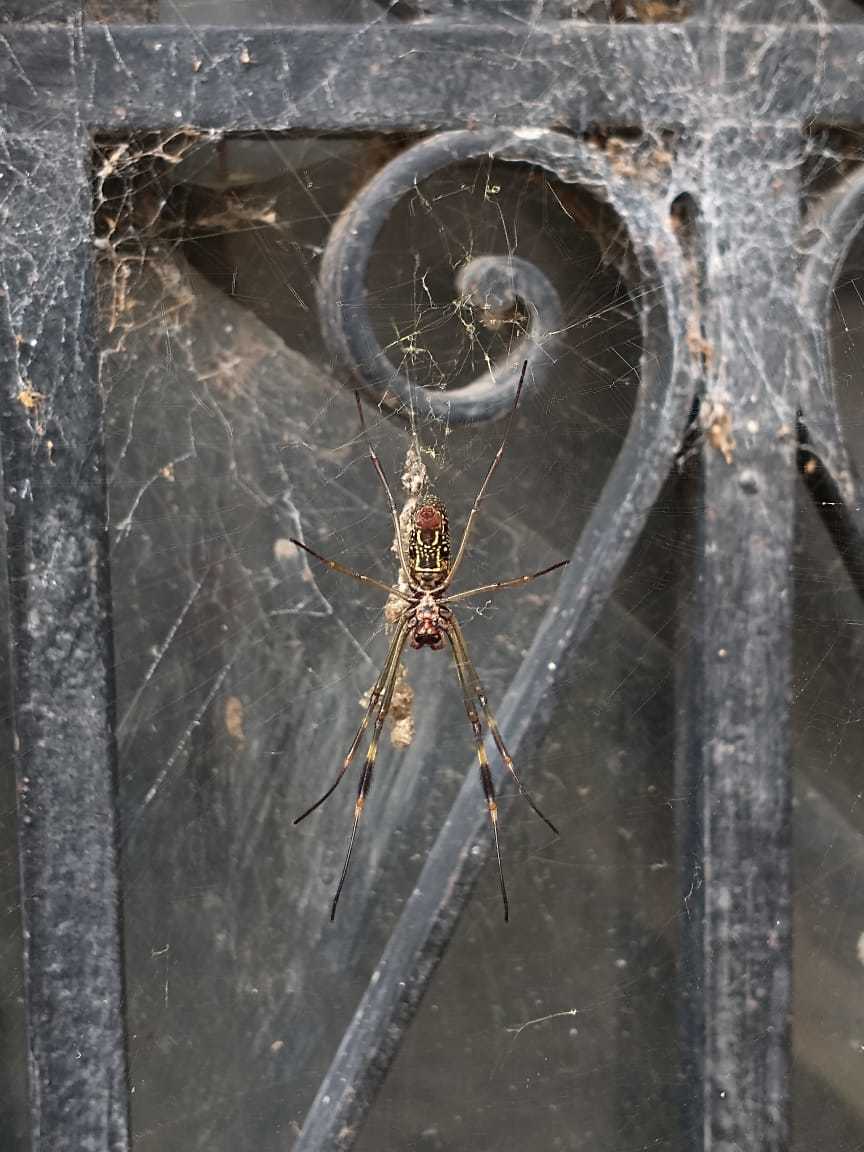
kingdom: Animalia
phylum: Arthropoda
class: Arachnida
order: Araneae
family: Araneidae
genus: Trichonephila
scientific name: Trichonephila clavipes
